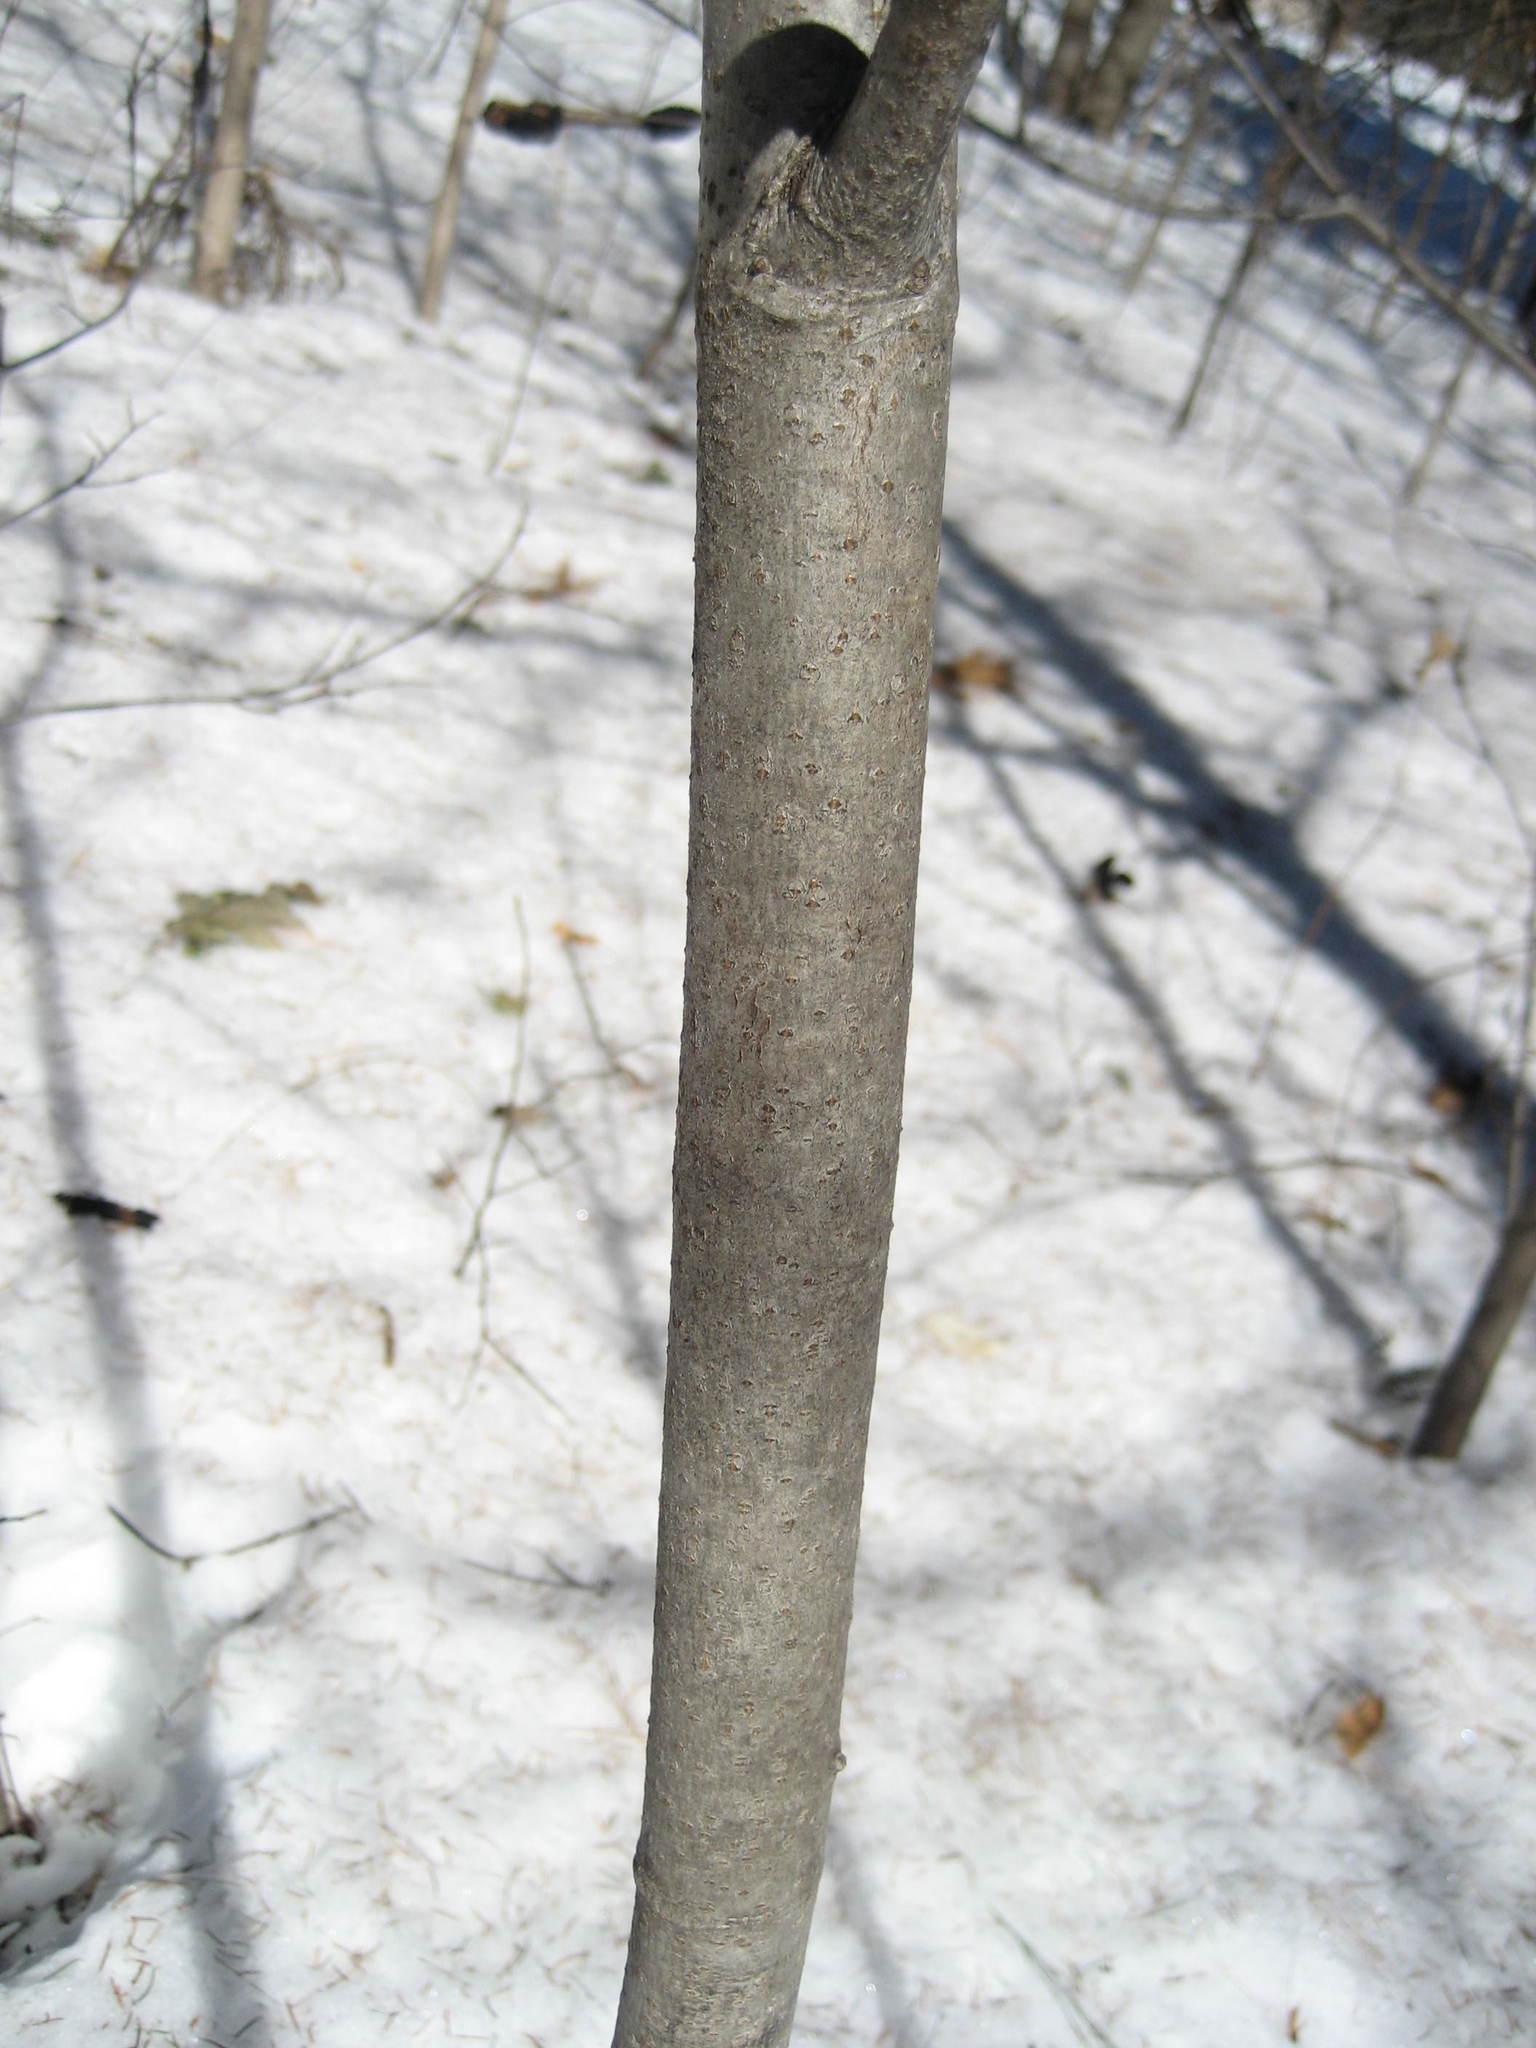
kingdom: Plantae
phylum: Tracheophyta
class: Magnoliopsida
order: Malvales
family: Malvaceae
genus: Tilia
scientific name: Tilia americana
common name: Basswood
